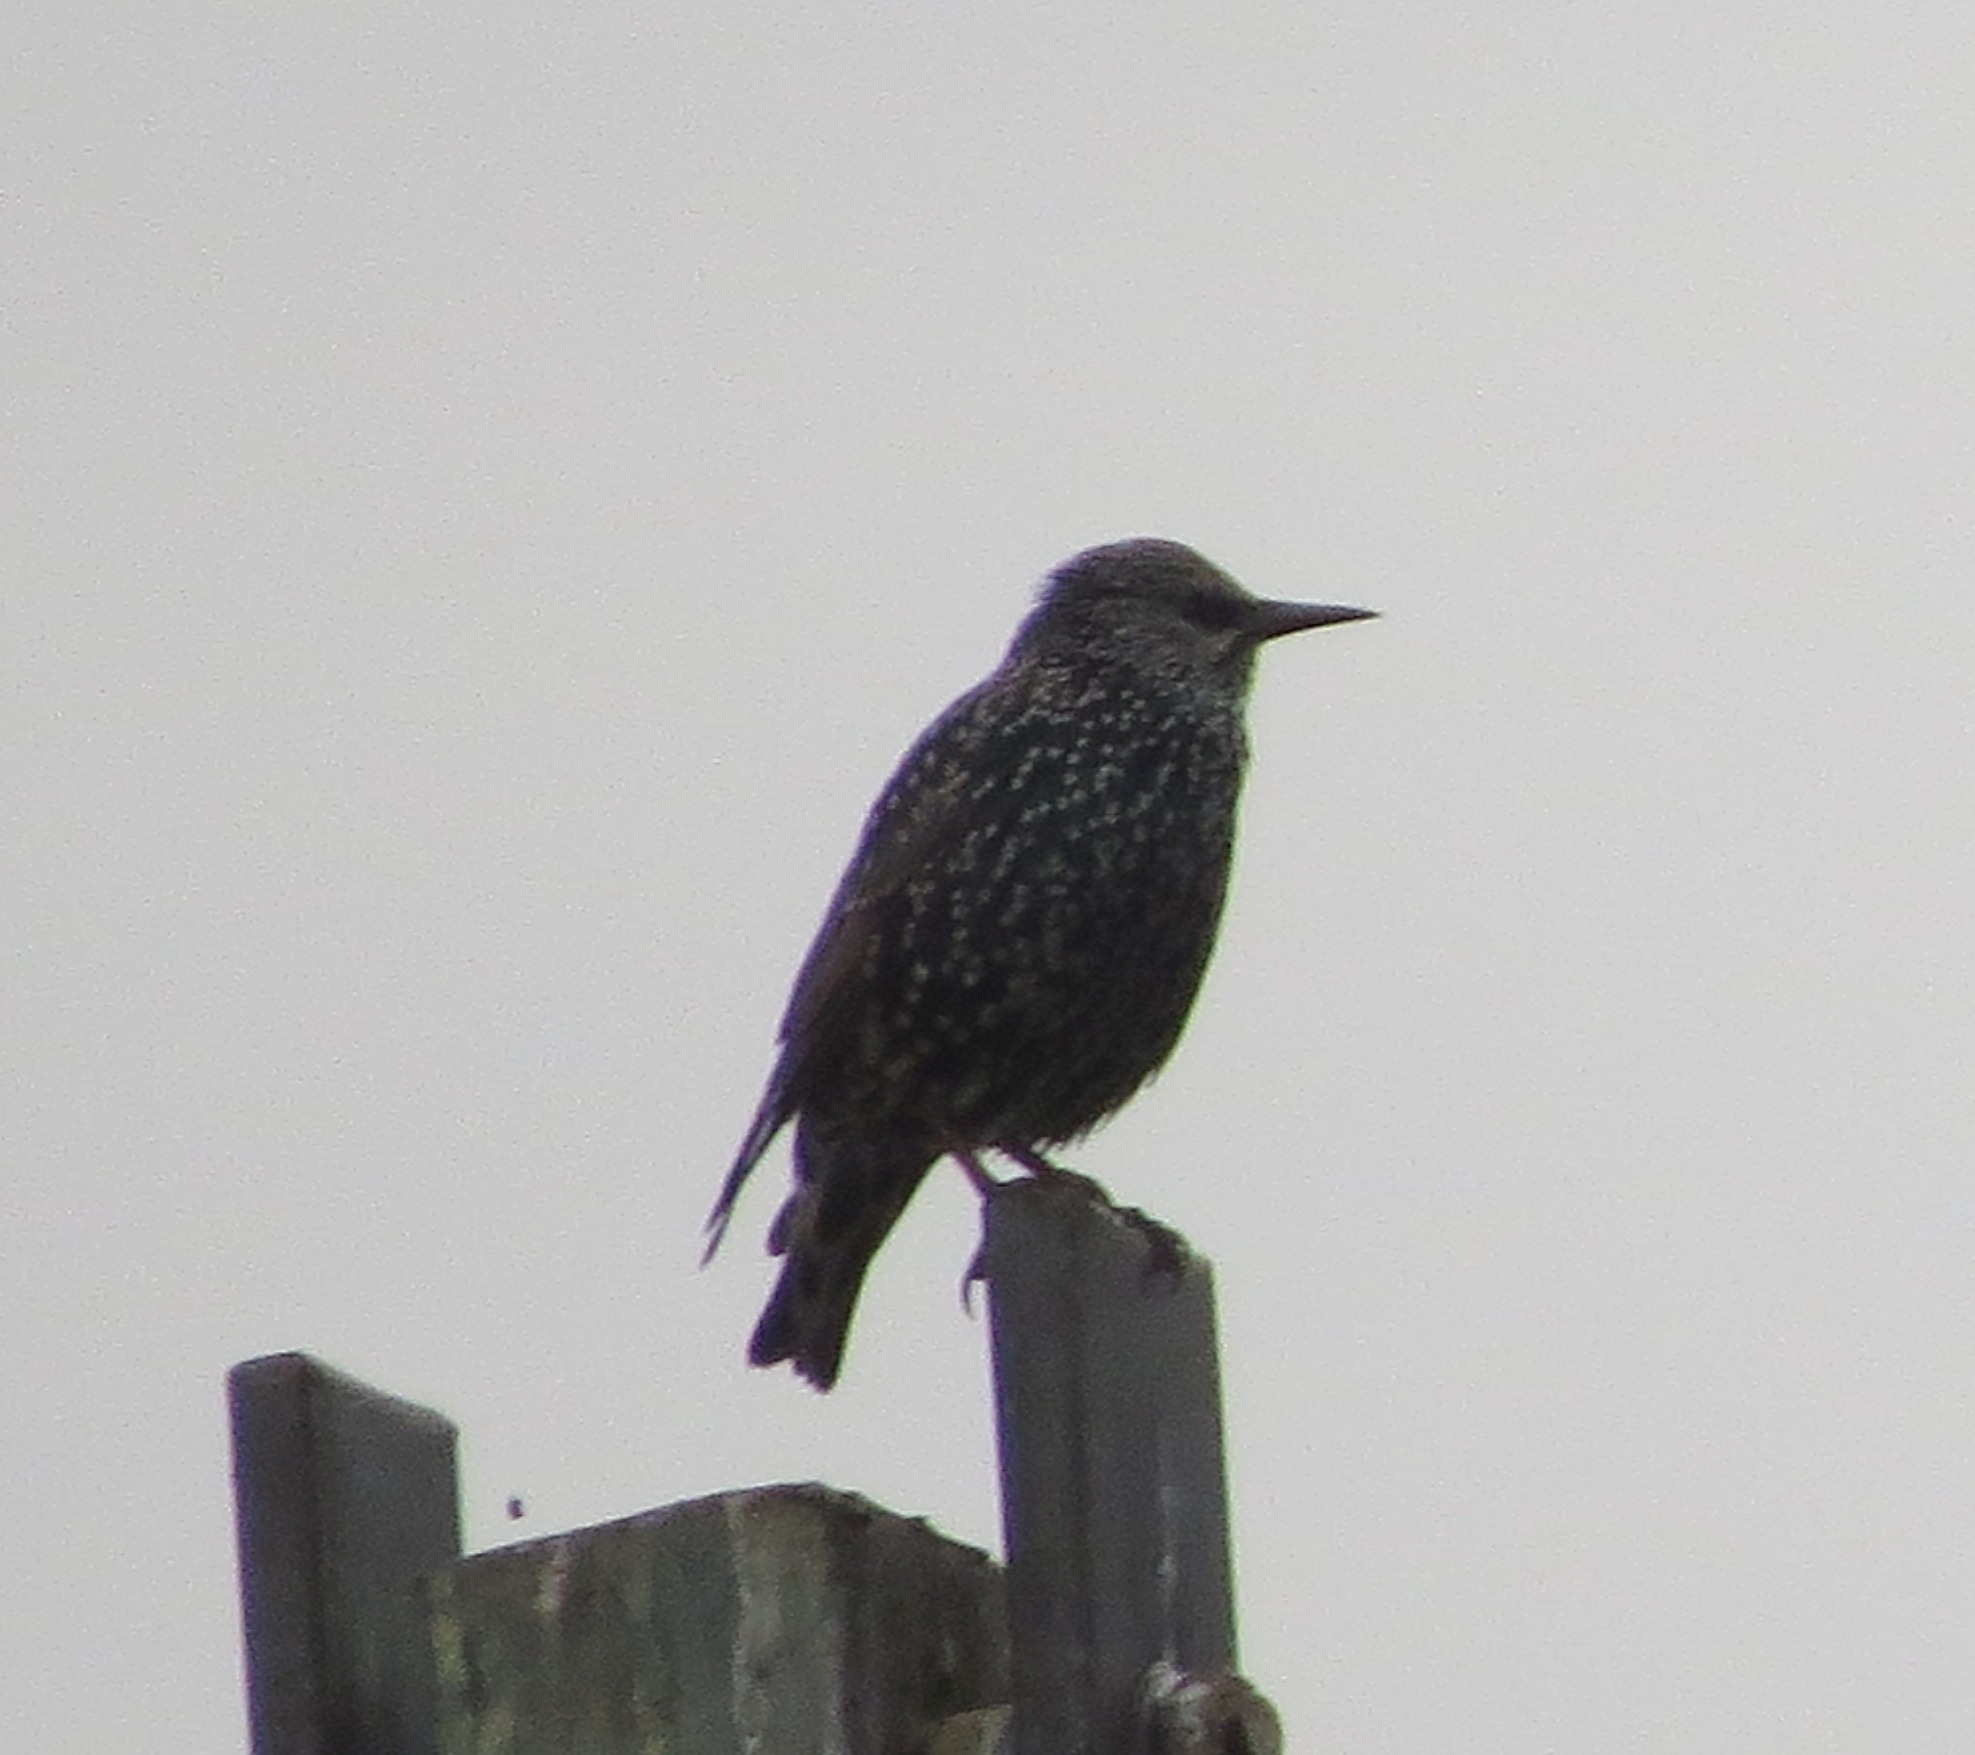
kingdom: Animalia
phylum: Chordata
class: Aves
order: Passeriformes
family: Sturnidae
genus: Sturnus
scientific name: Sturnus vulgaris
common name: Common starling
